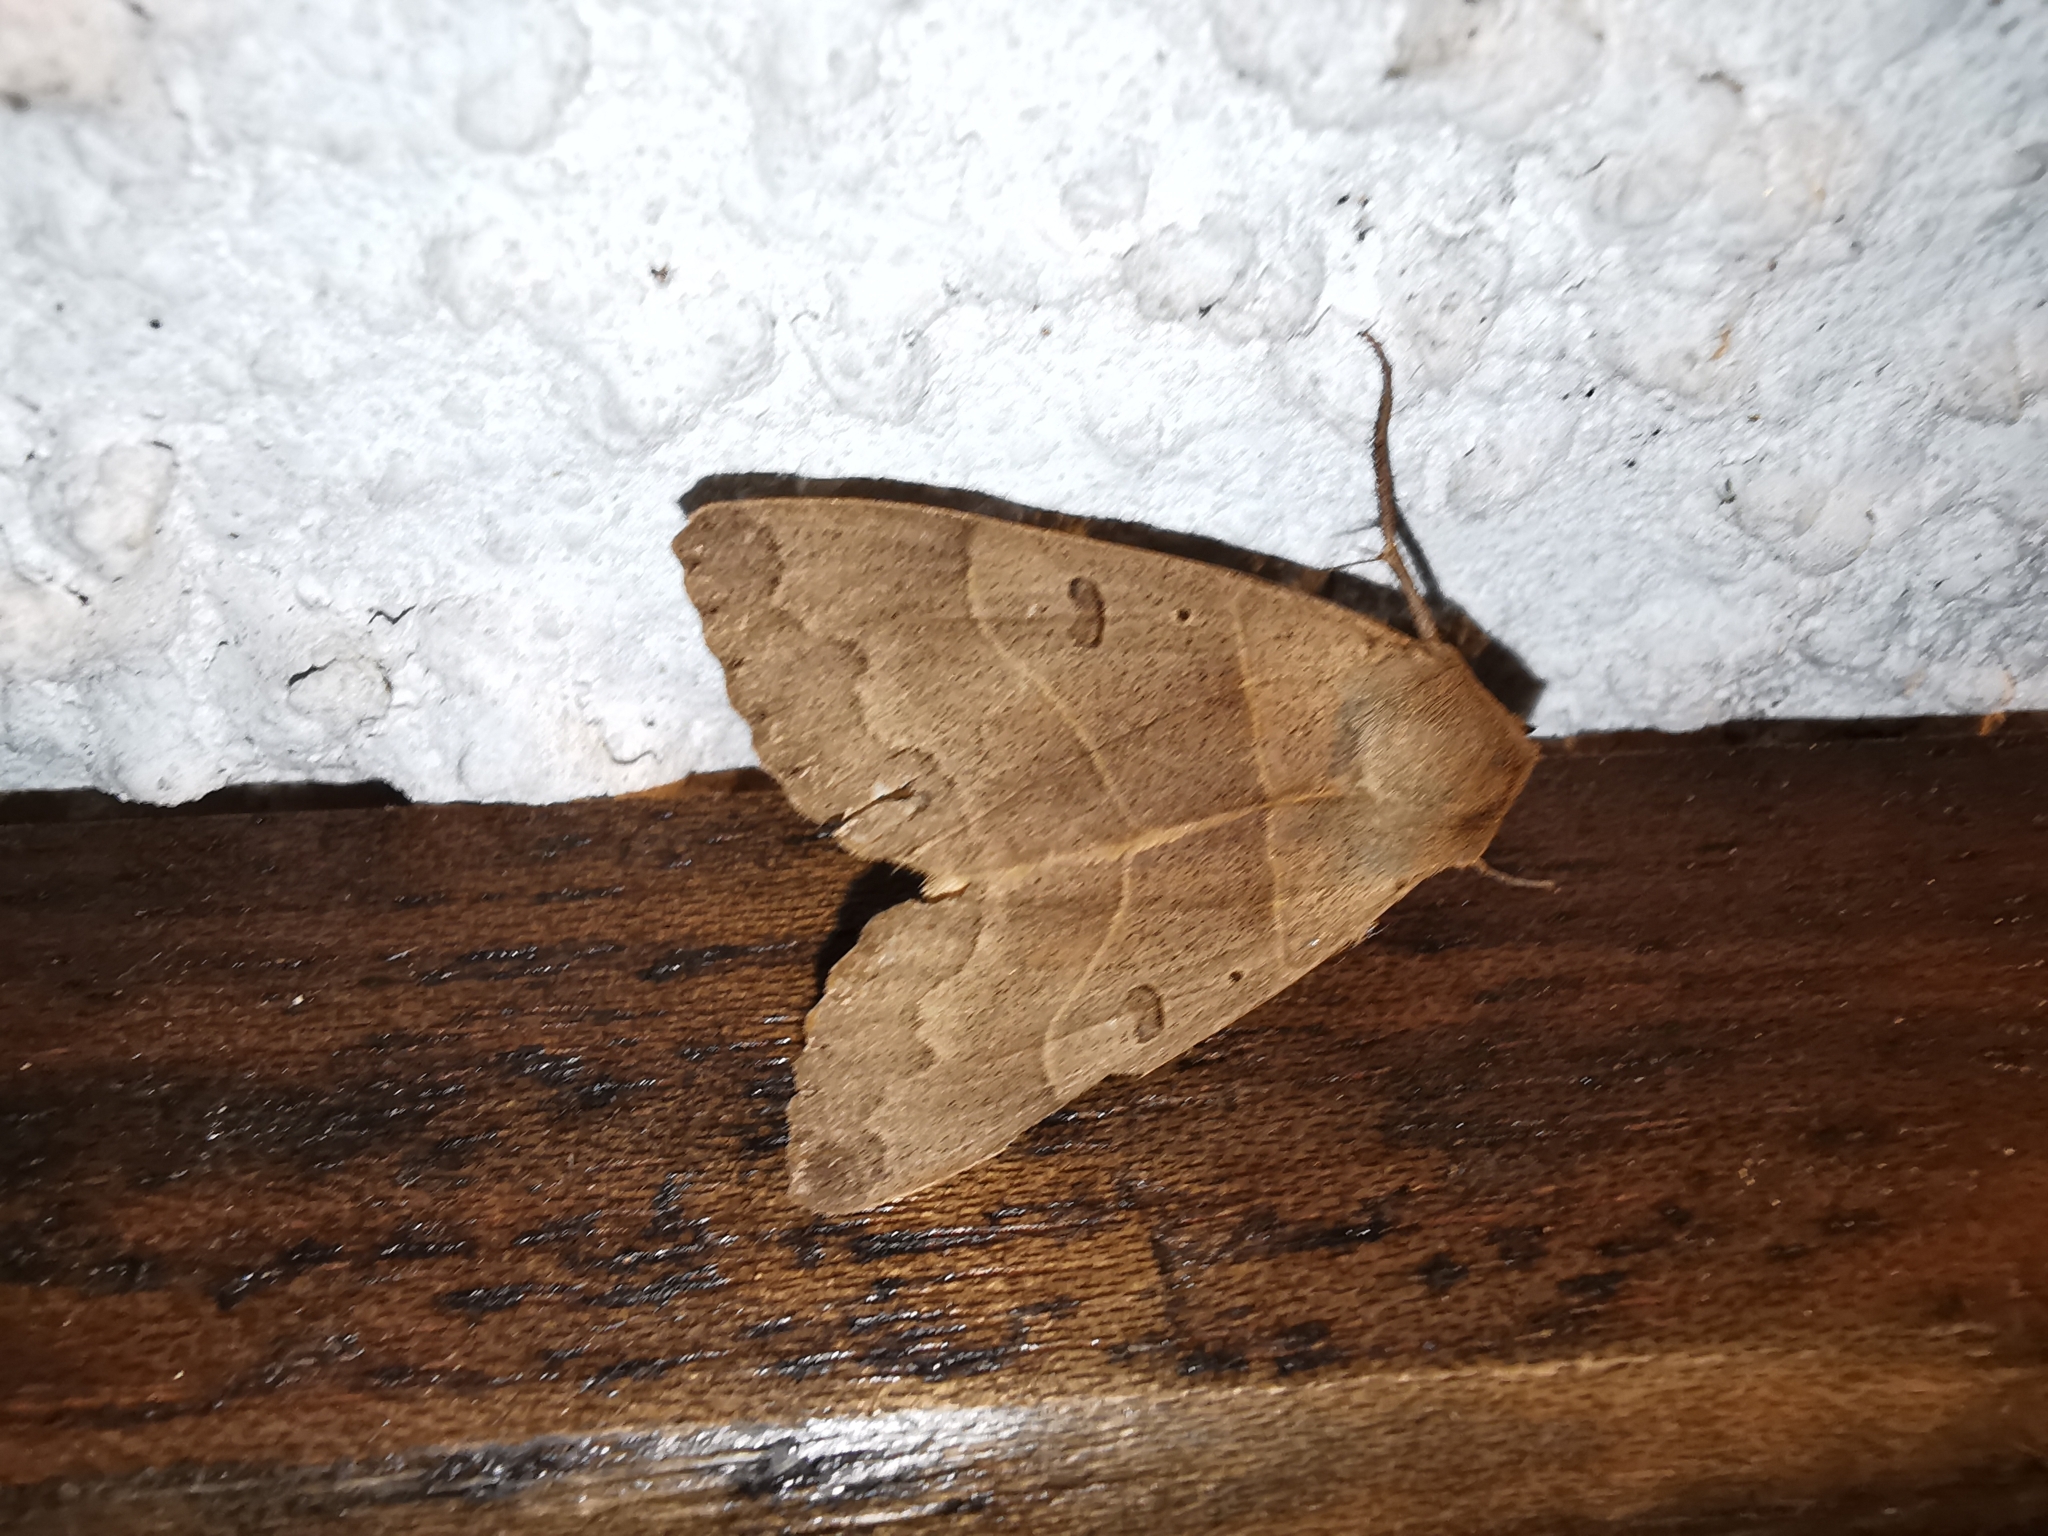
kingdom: Animalia
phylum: Arthropoda
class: Insecta
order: Lepidoptera
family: Erebidae
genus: Minucia
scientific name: Minucia lunaris
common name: Lunar double-stripe
